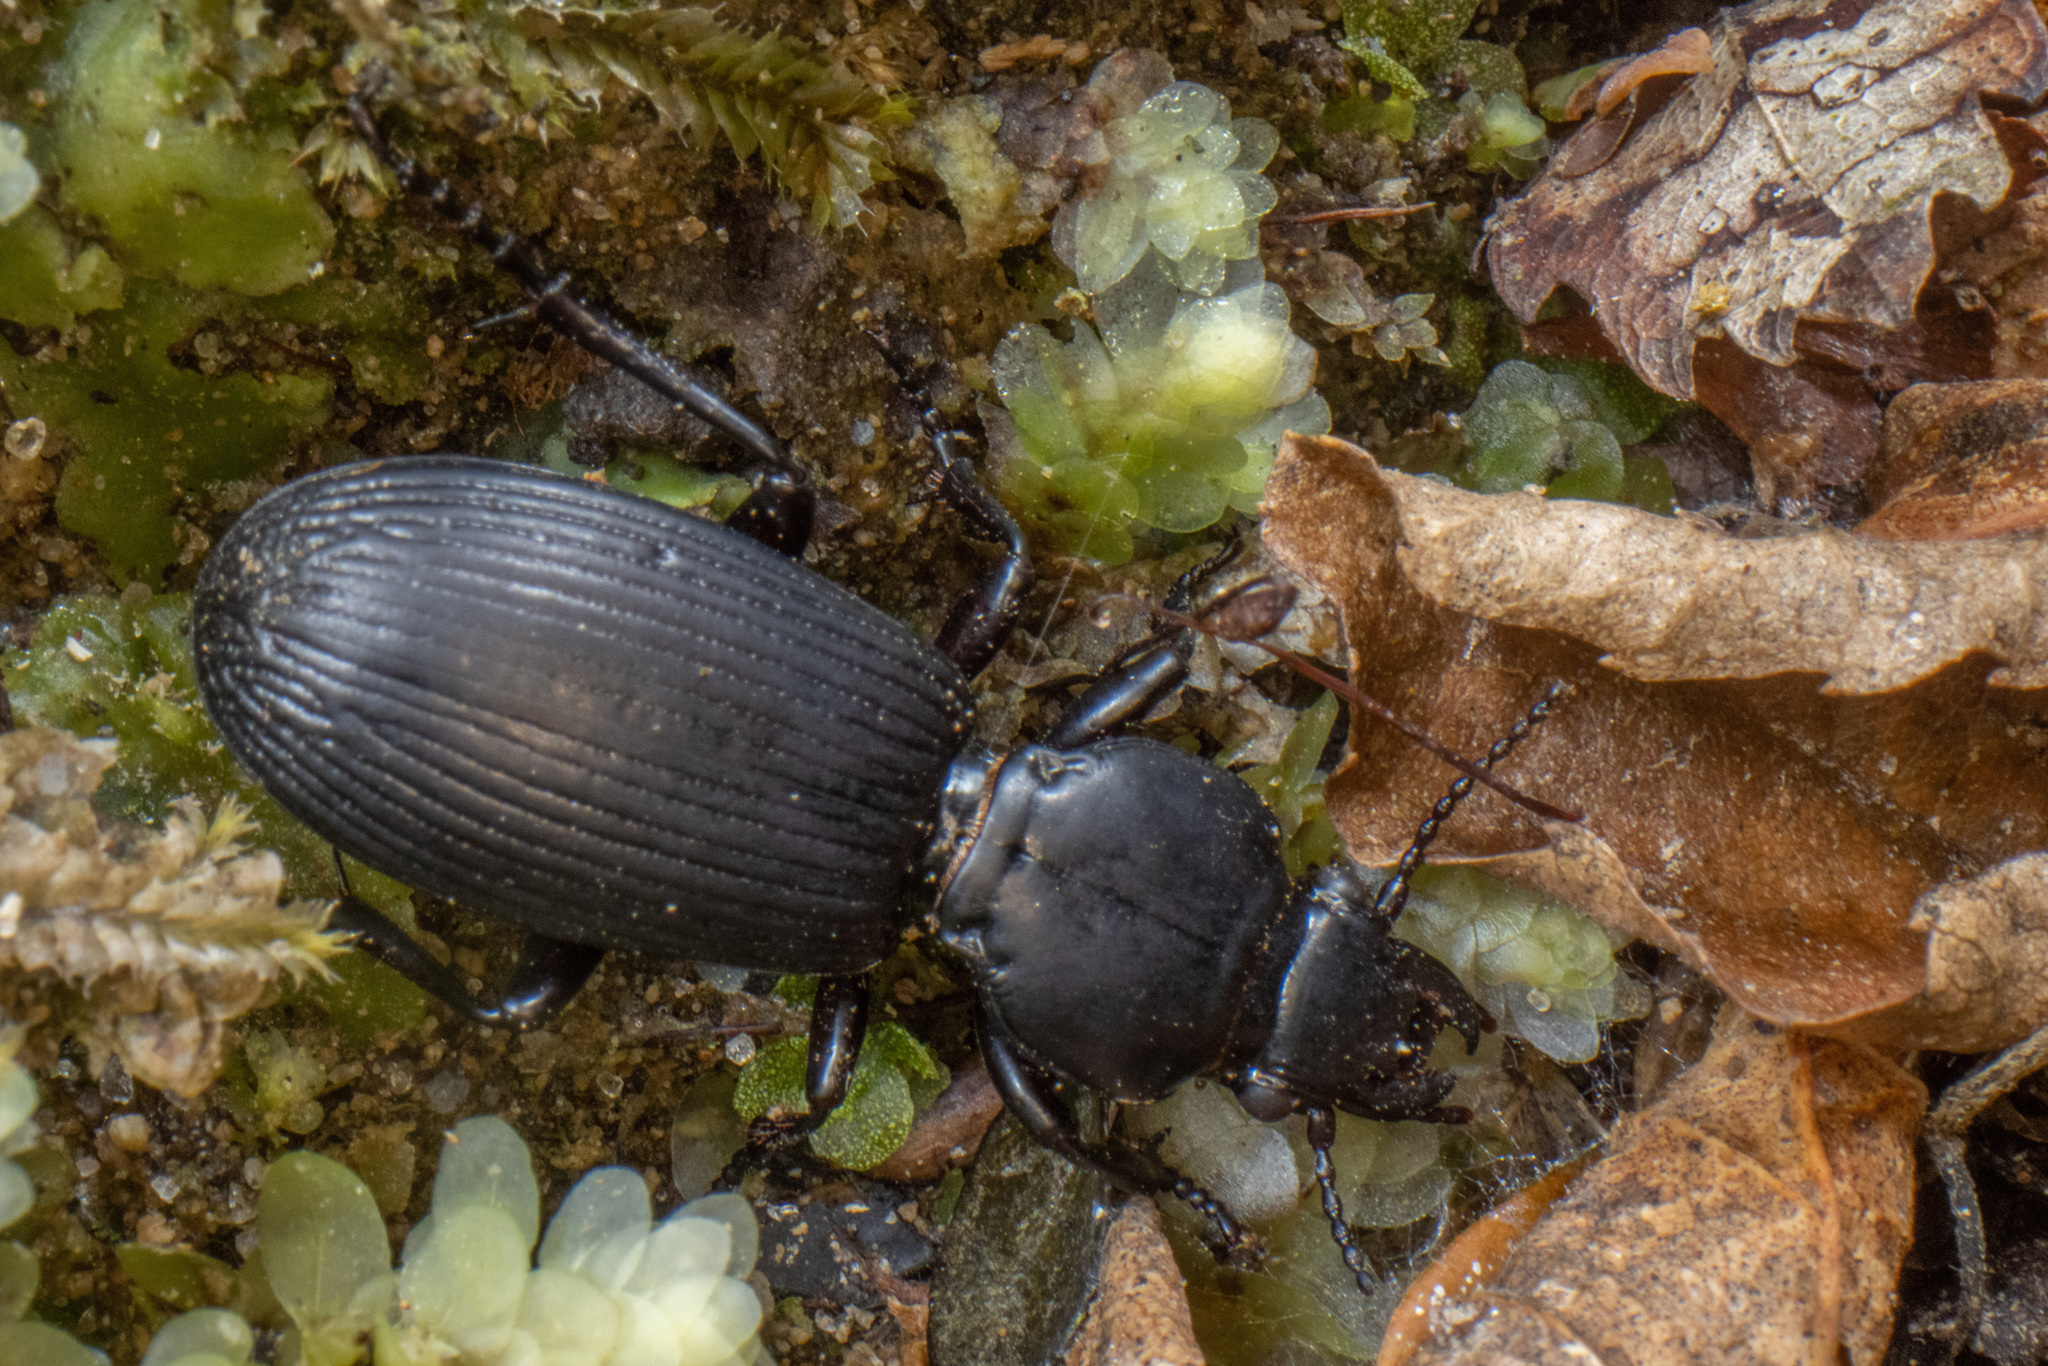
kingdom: Animalia
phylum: Arthropoda
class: Insecta
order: Coleoptera
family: Carabidae
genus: Mecodema
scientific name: Mecodema curvidens
